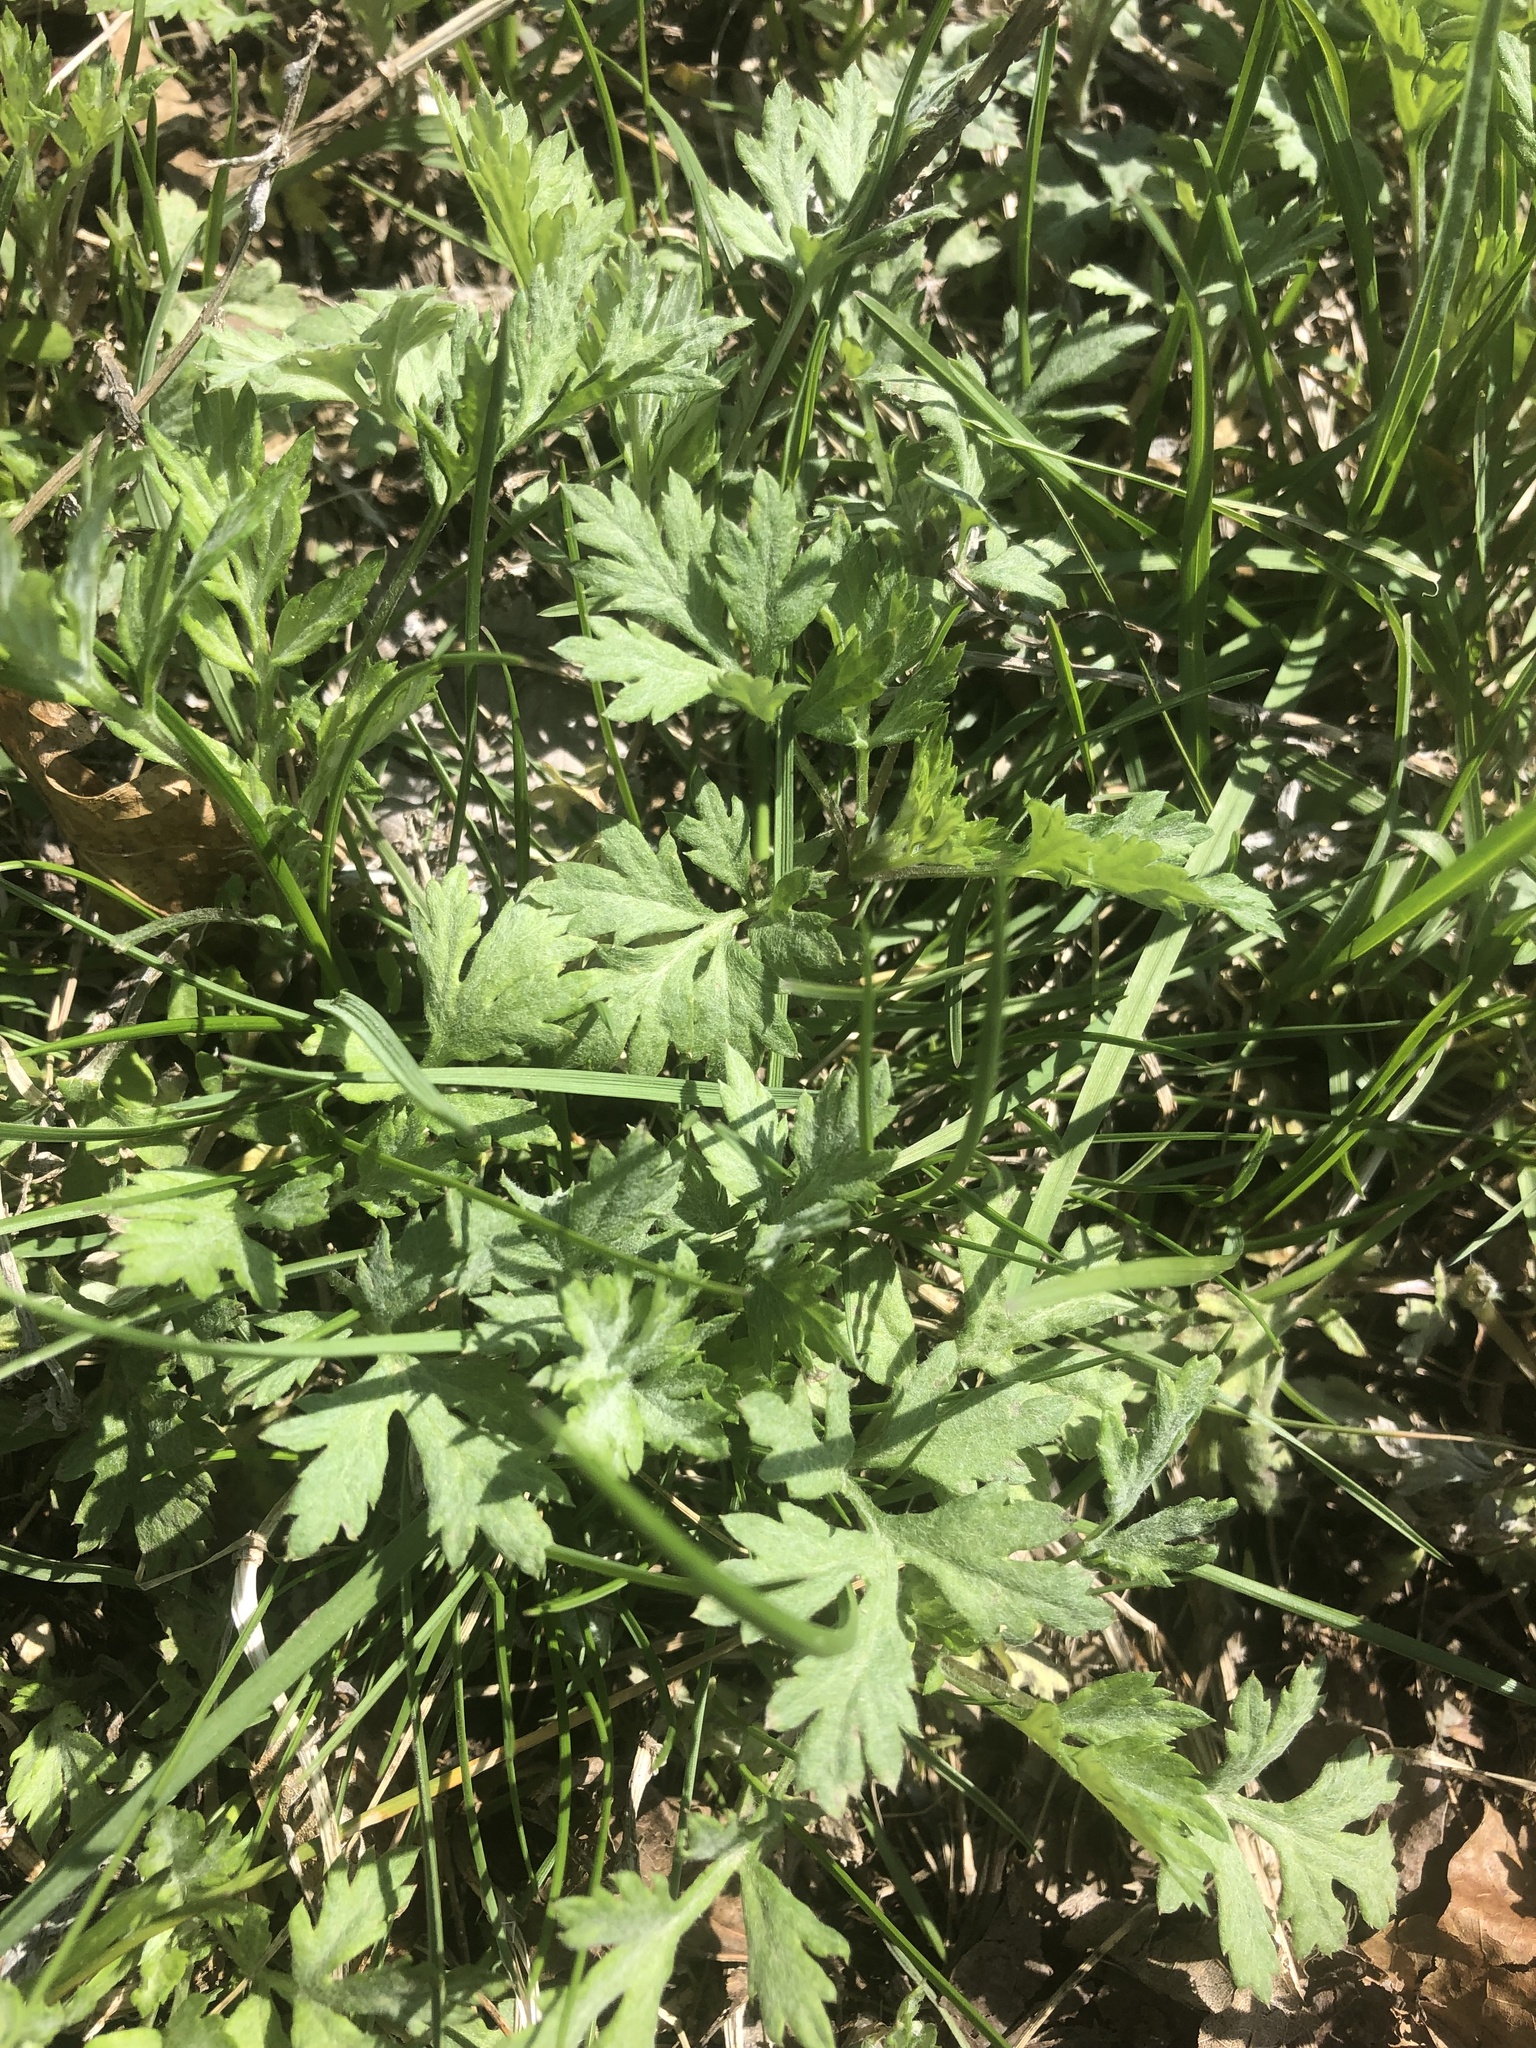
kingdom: Plantae
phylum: Tracheophyta
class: Magnoliopsida
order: Asterales
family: Asteraceae
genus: Artemisia
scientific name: Artemisia vulgaris
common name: Mugwort
